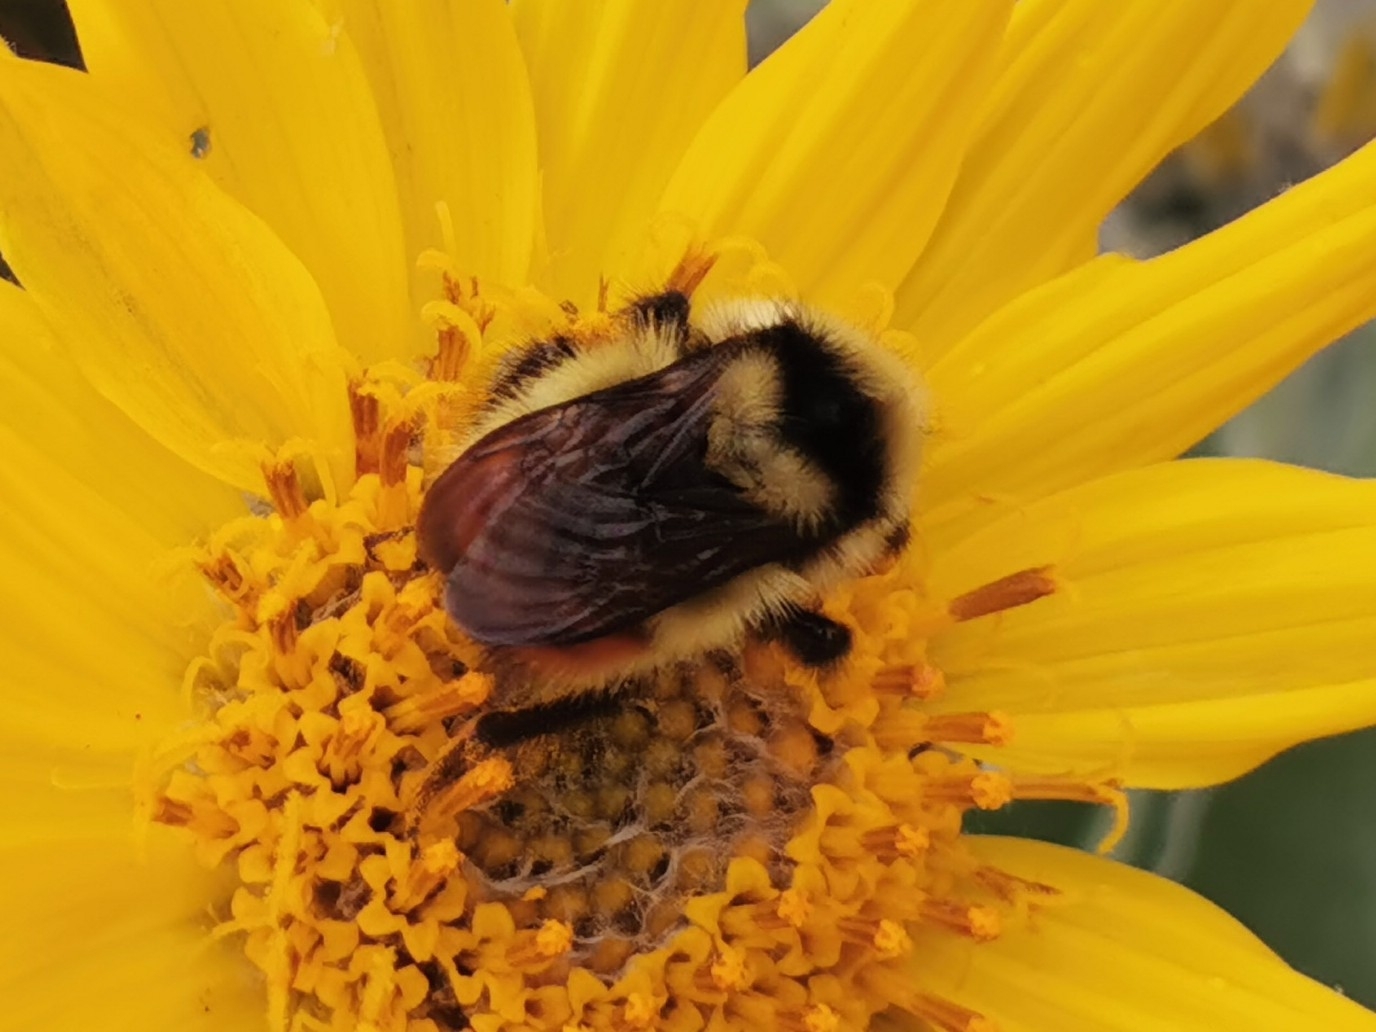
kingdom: Animalia
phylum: Arthropoda
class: Insecta
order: Hymenoptera
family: Apidae
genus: Bombus
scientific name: Bombus centralis
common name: Central bumble bee
